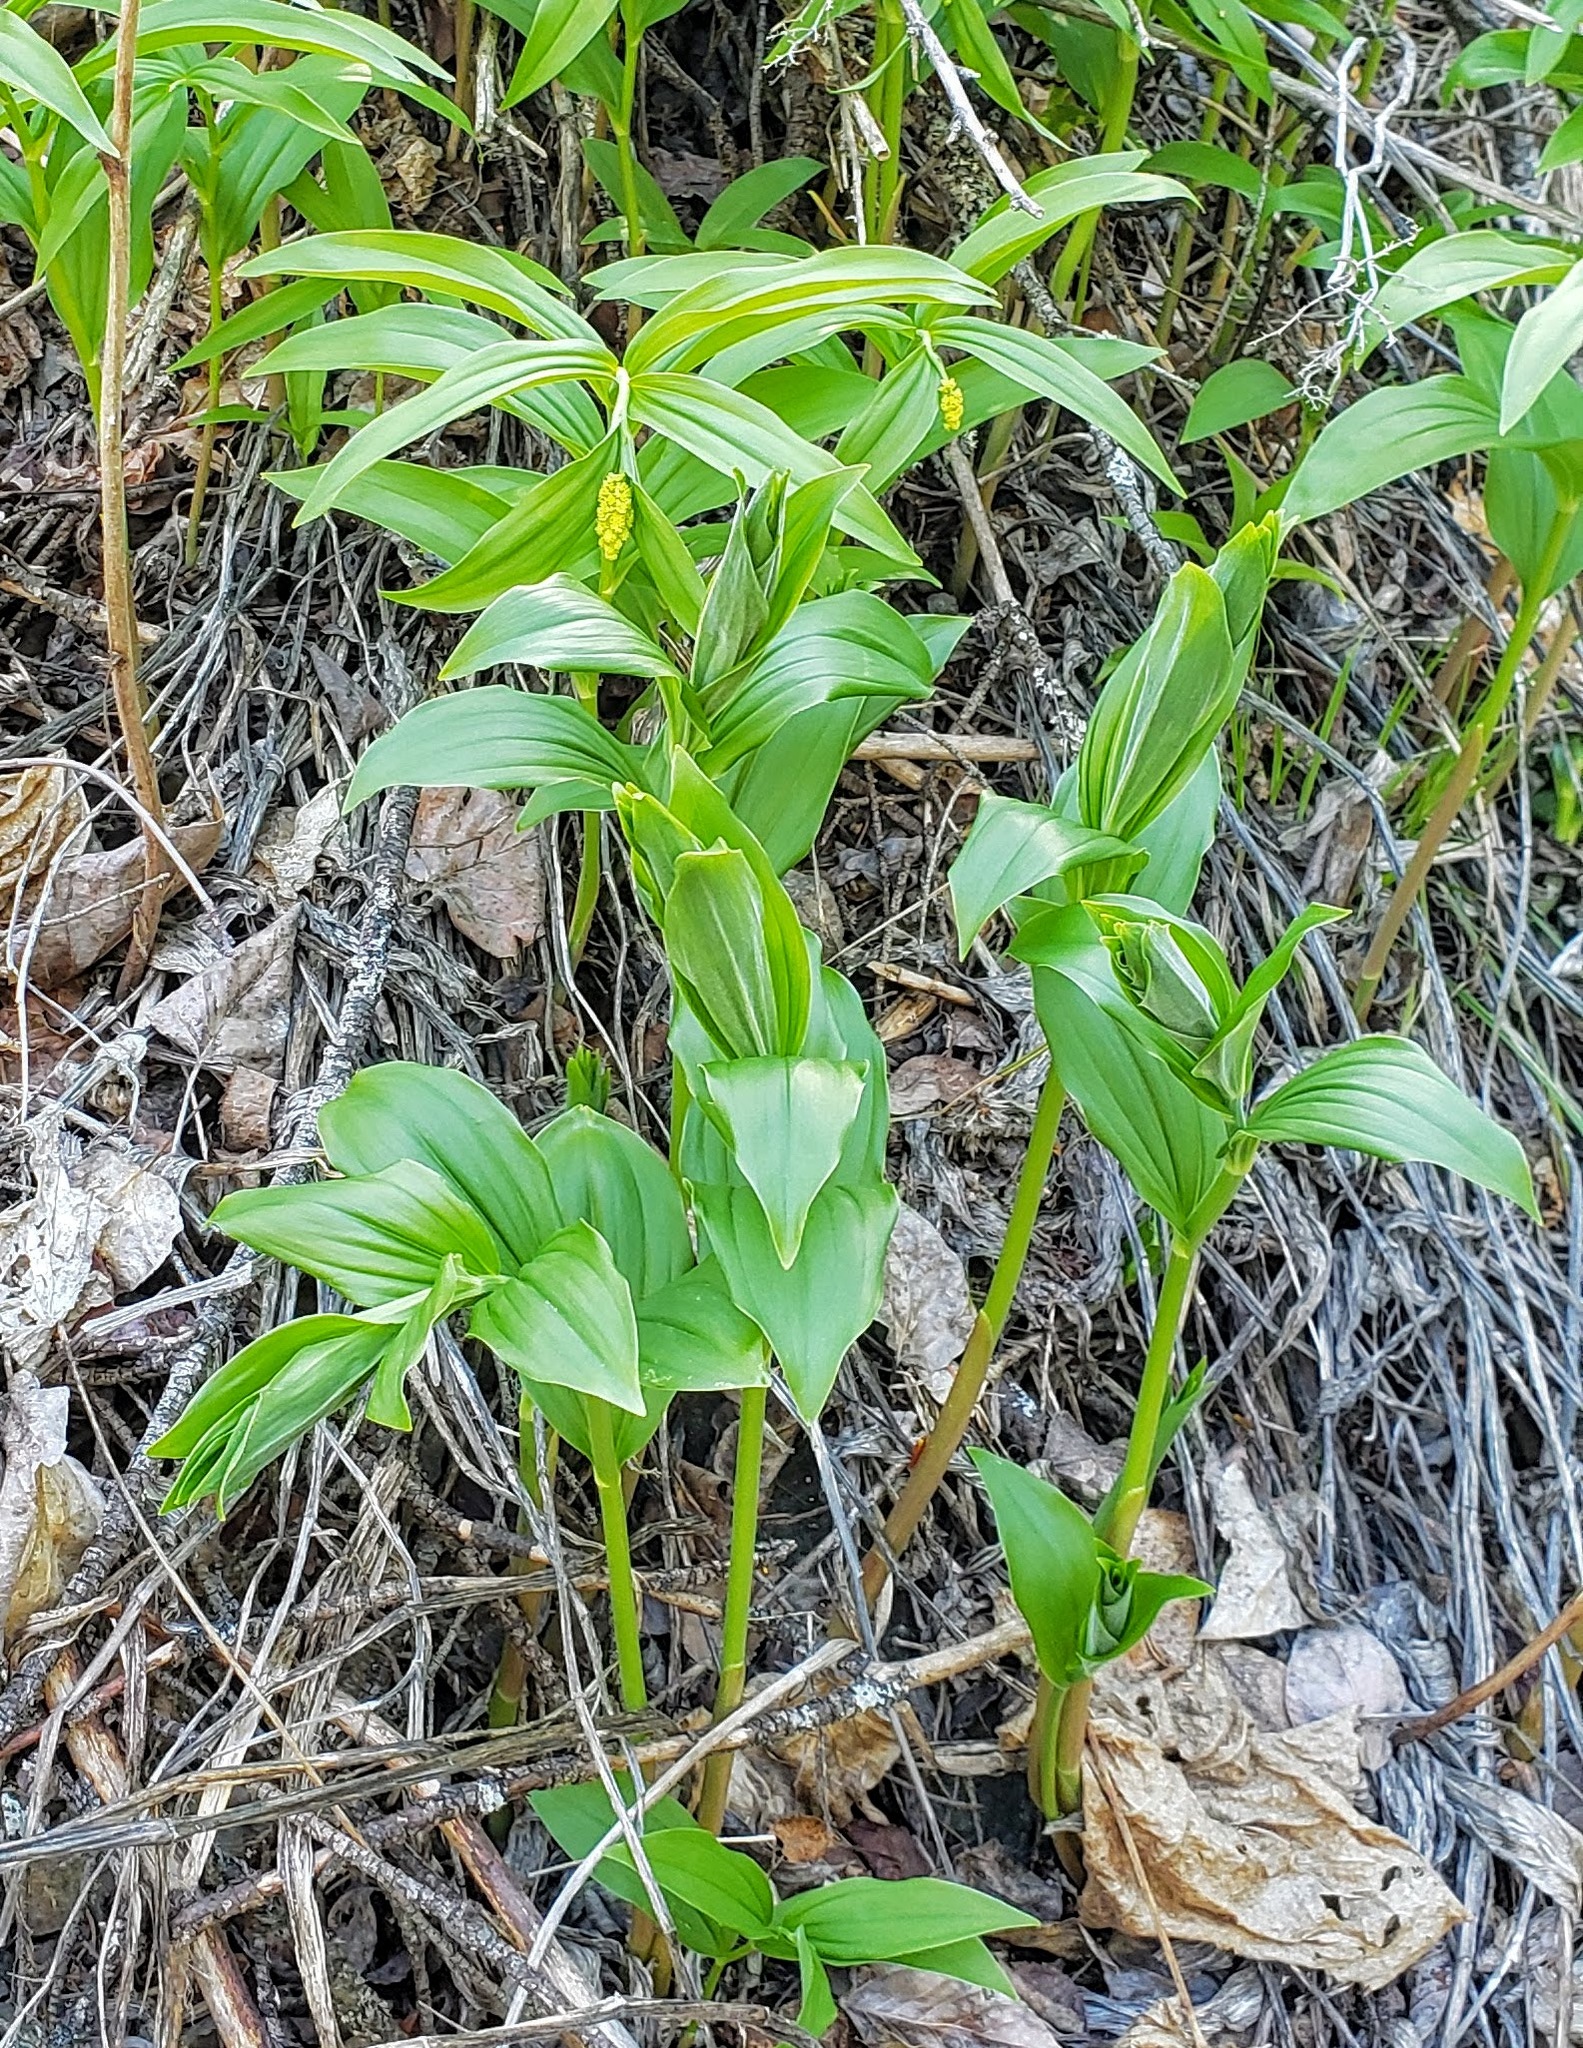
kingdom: Plantae
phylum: Tracheophyta
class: Liliopsida
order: Asparagales
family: Asparagaceae
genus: Maianthemum
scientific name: Maianthemum racemosum
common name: False spikenard
